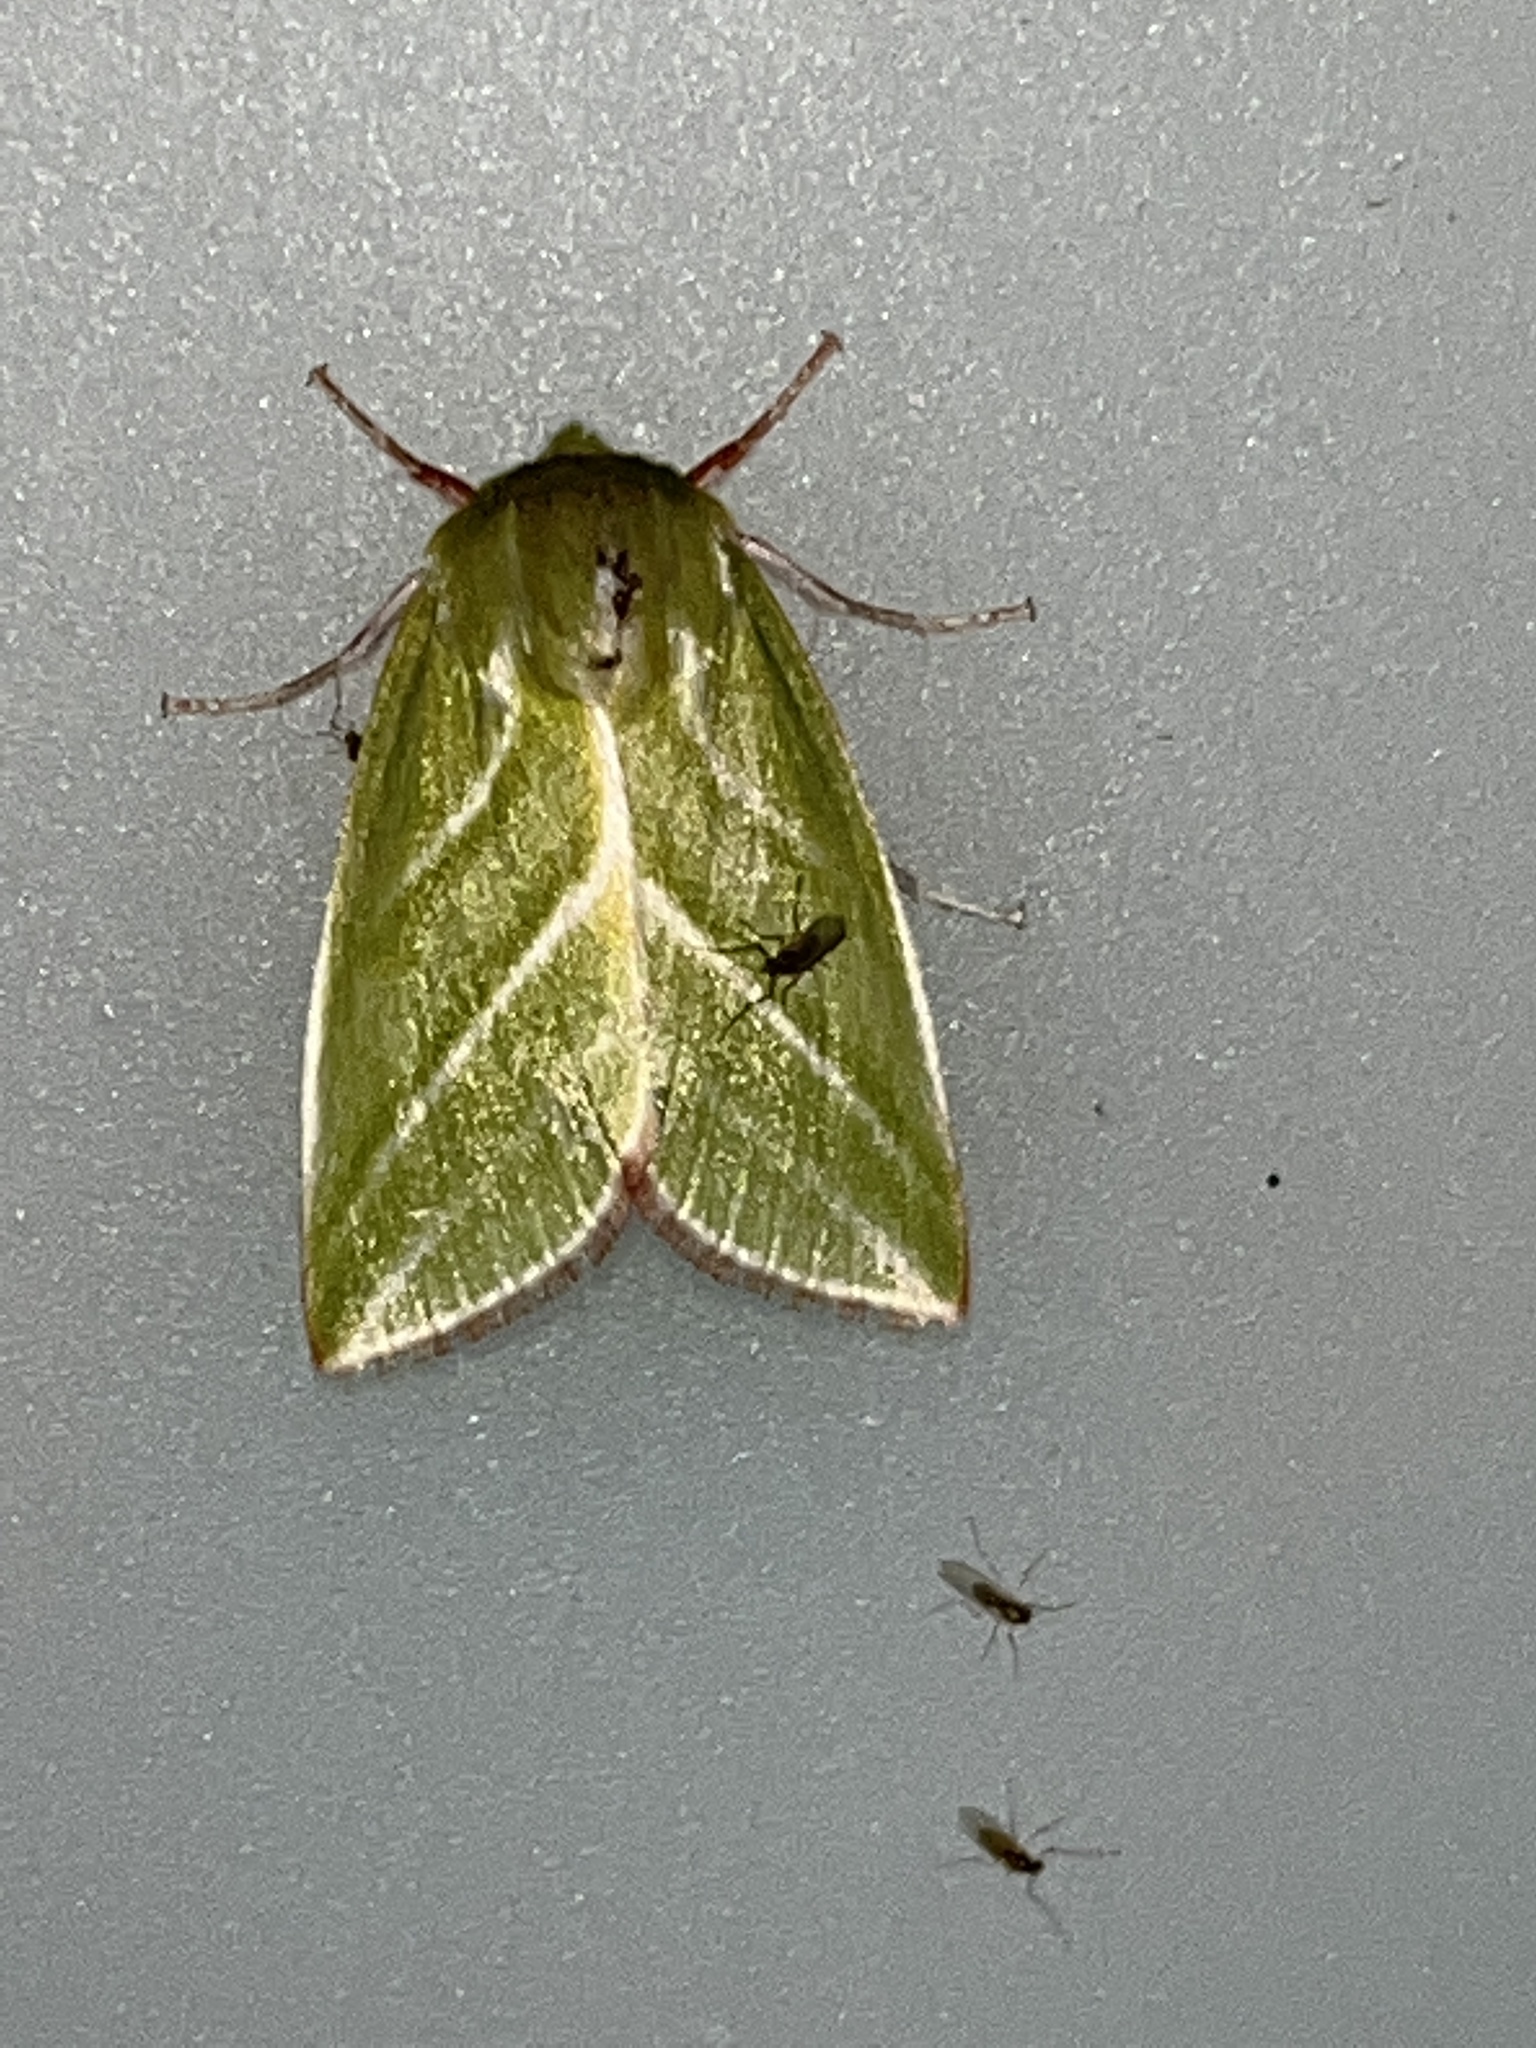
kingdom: Animalia
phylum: Arthropoda
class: Insecta
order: Lepidoptera
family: Nolidae
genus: Pseudoips
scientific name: Pseudoips prasinana
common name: Green silver-lines
